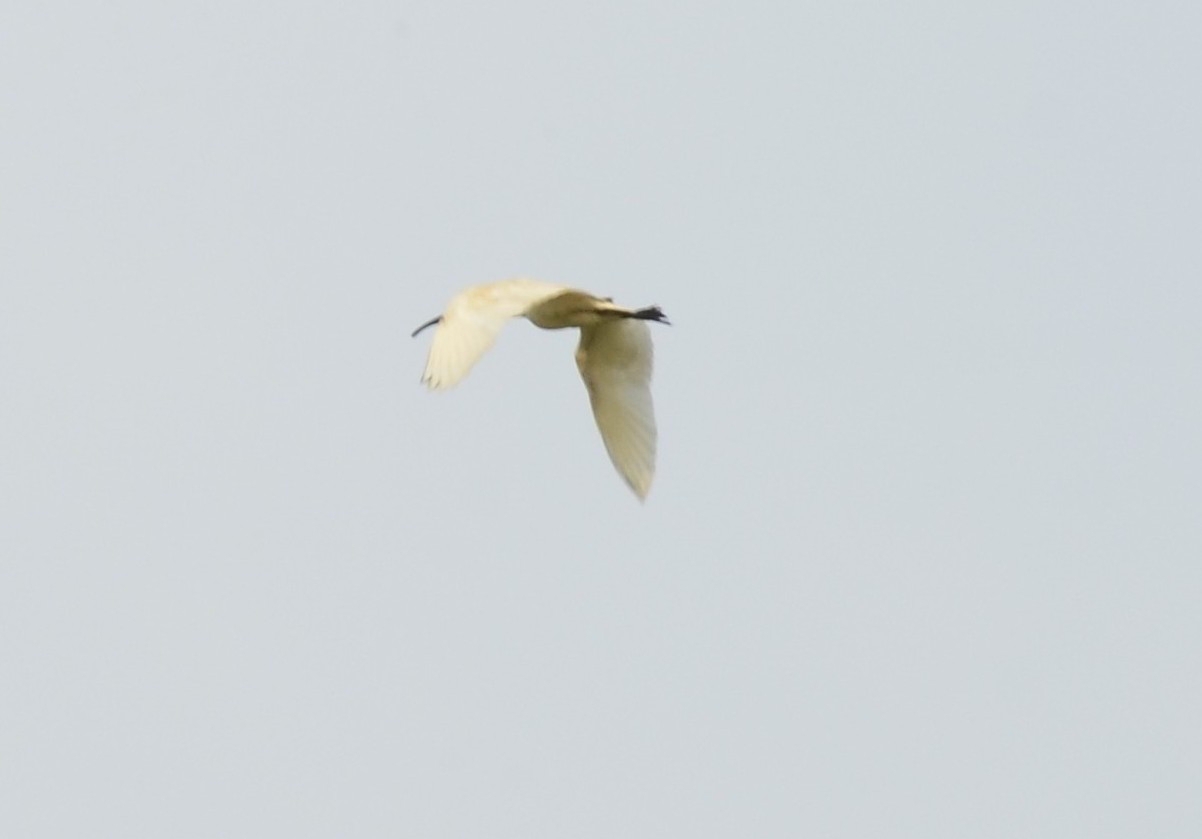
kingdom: Animalia
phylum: Chordata
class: Aves
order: Pelecaniformes
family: Threskiornithidae
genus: Threskiornis
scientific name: Threskiornis melanocephalus
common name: Black-headed ibis
